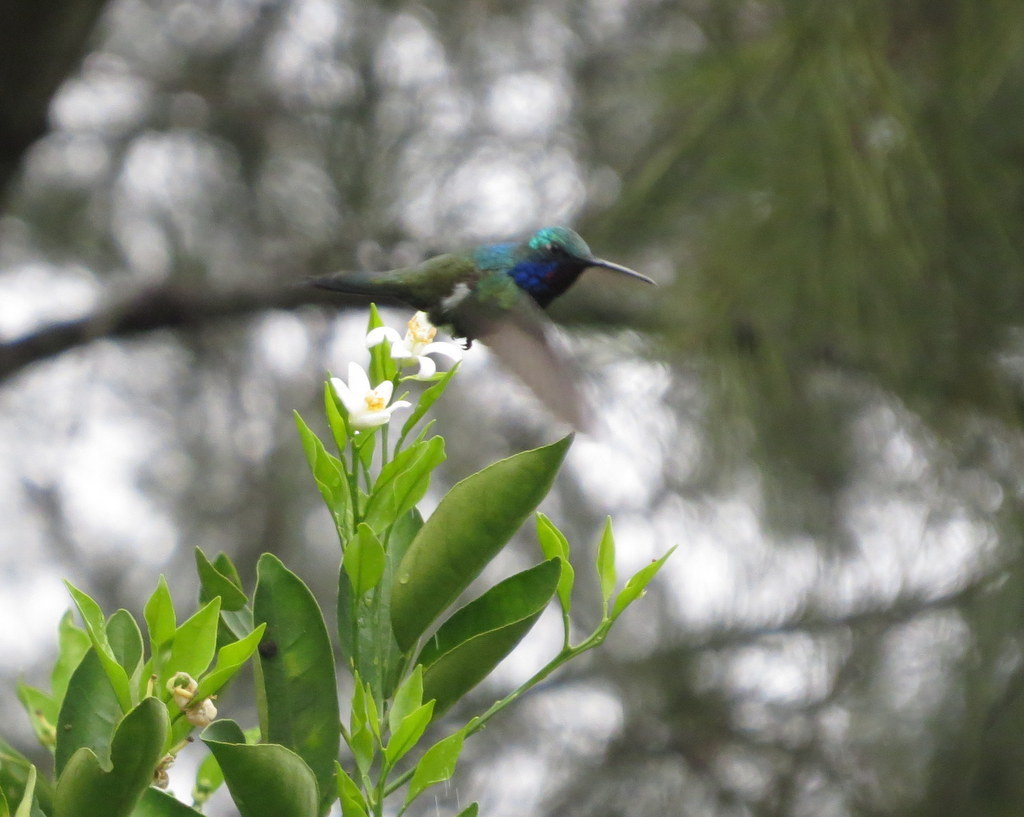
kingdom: Animalia
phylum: Chordata
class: Aves
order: Apodiformes
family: Trochilidae
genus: Heliomaster
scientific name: Heliomaster furcifer
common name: Blue-tufted starthroat
